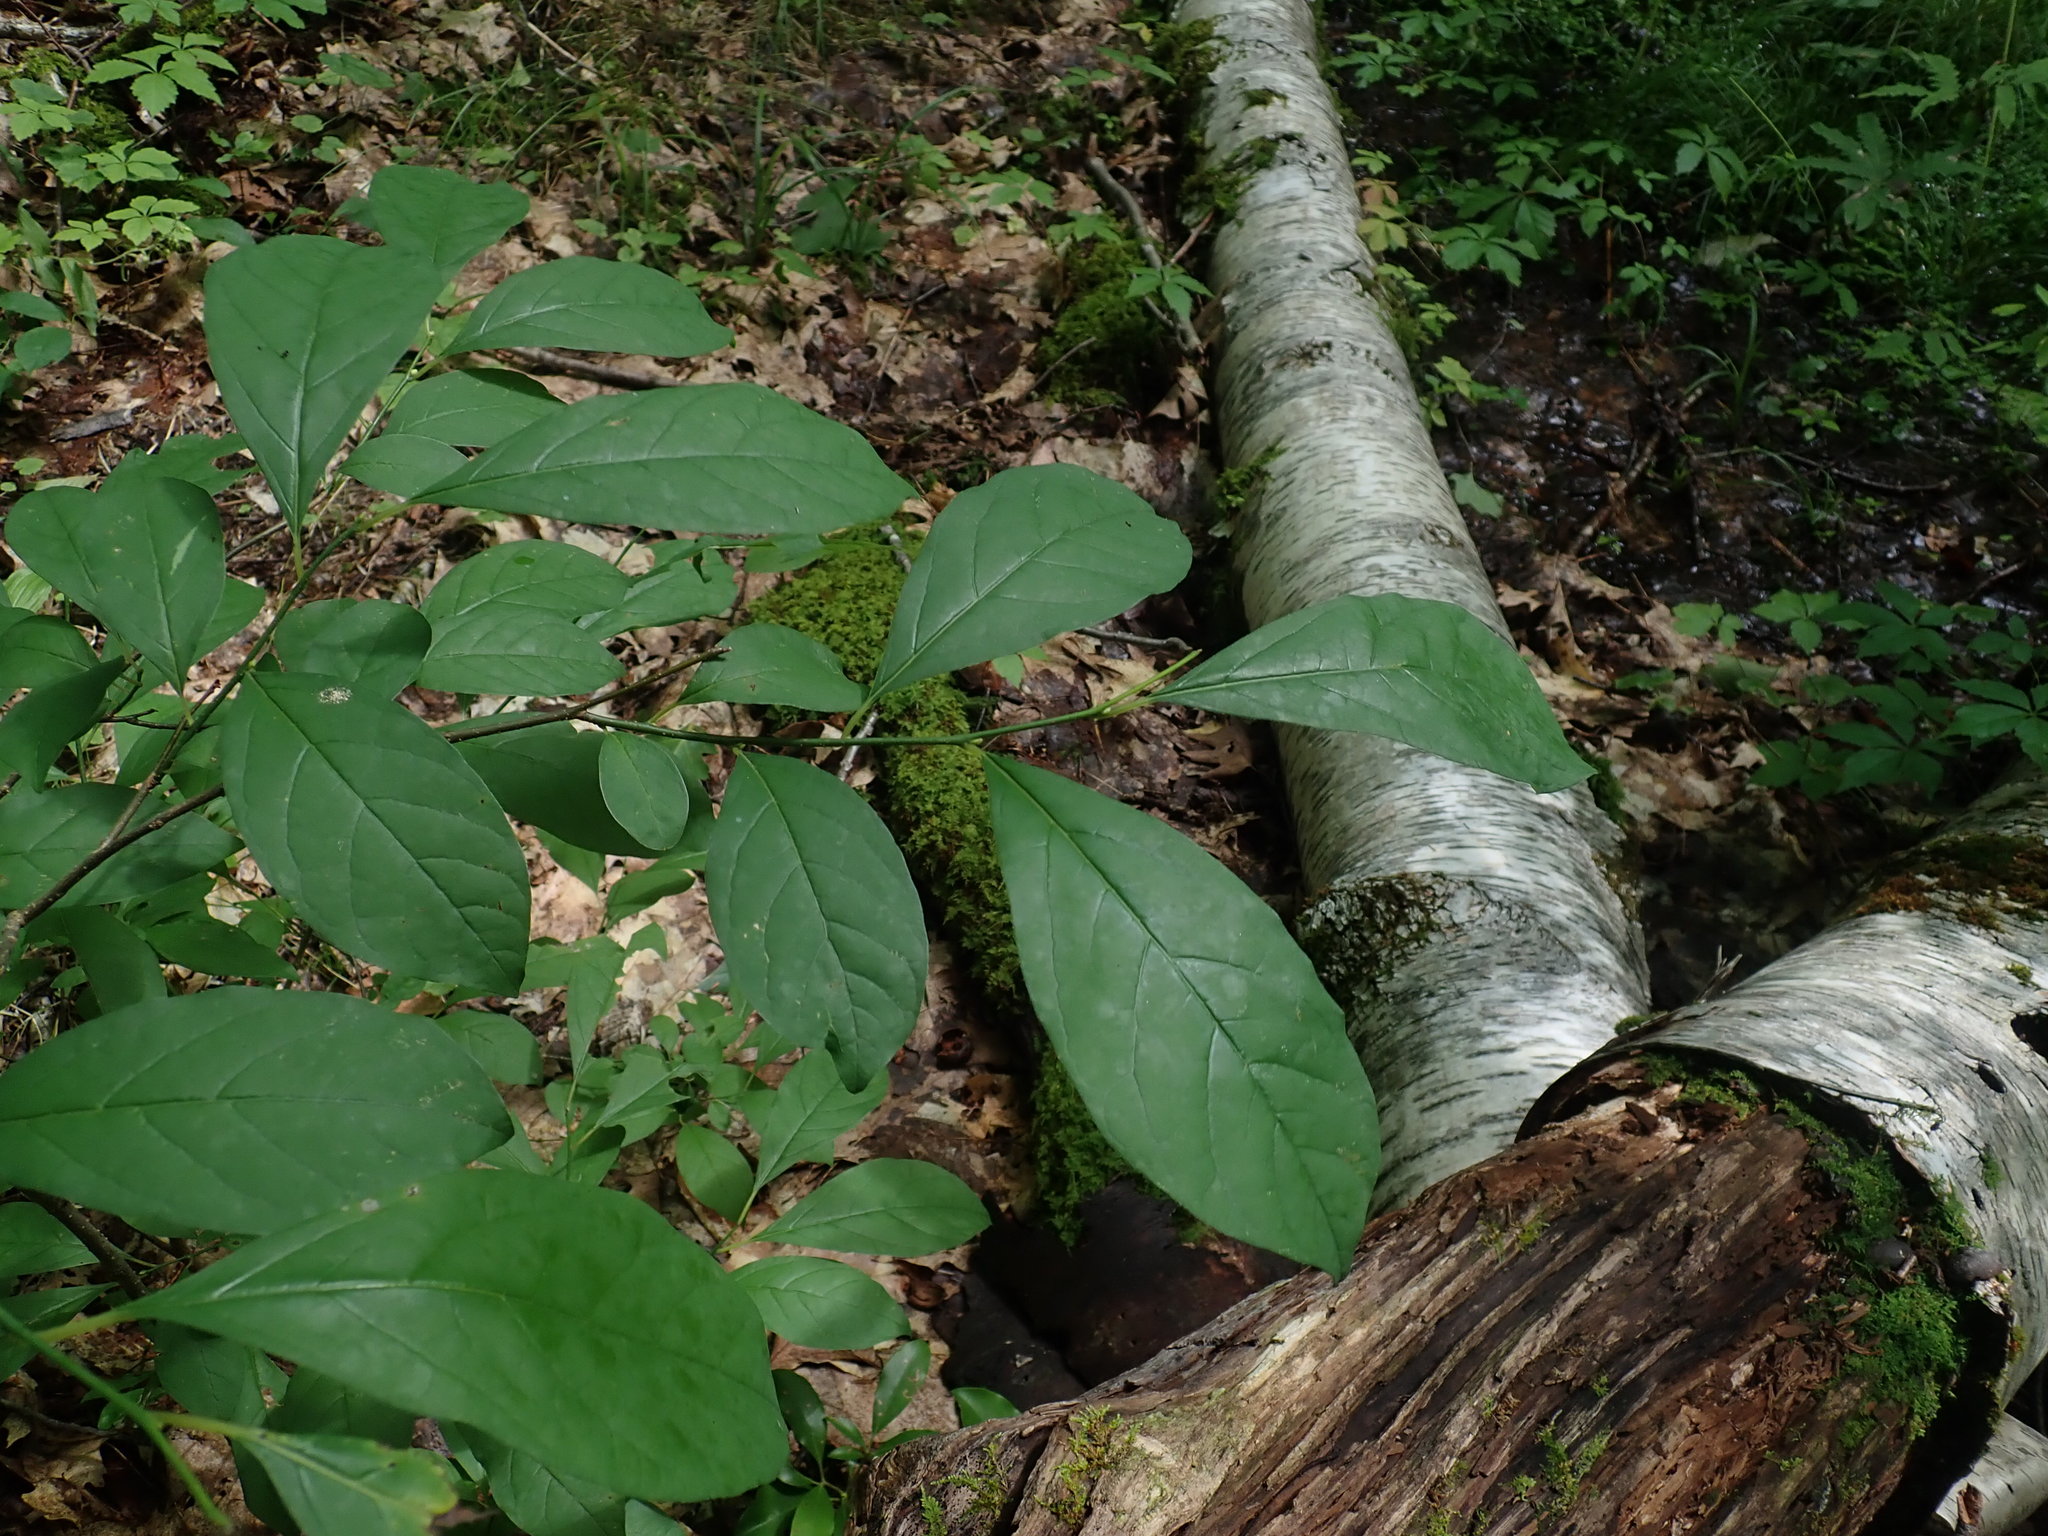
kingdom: Plantae
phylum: Tracheophyta
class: Magnoliopsida
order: Laurales
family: Lauraceae
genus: Lindera
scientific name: Lindera benzoin
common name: Spicebush
